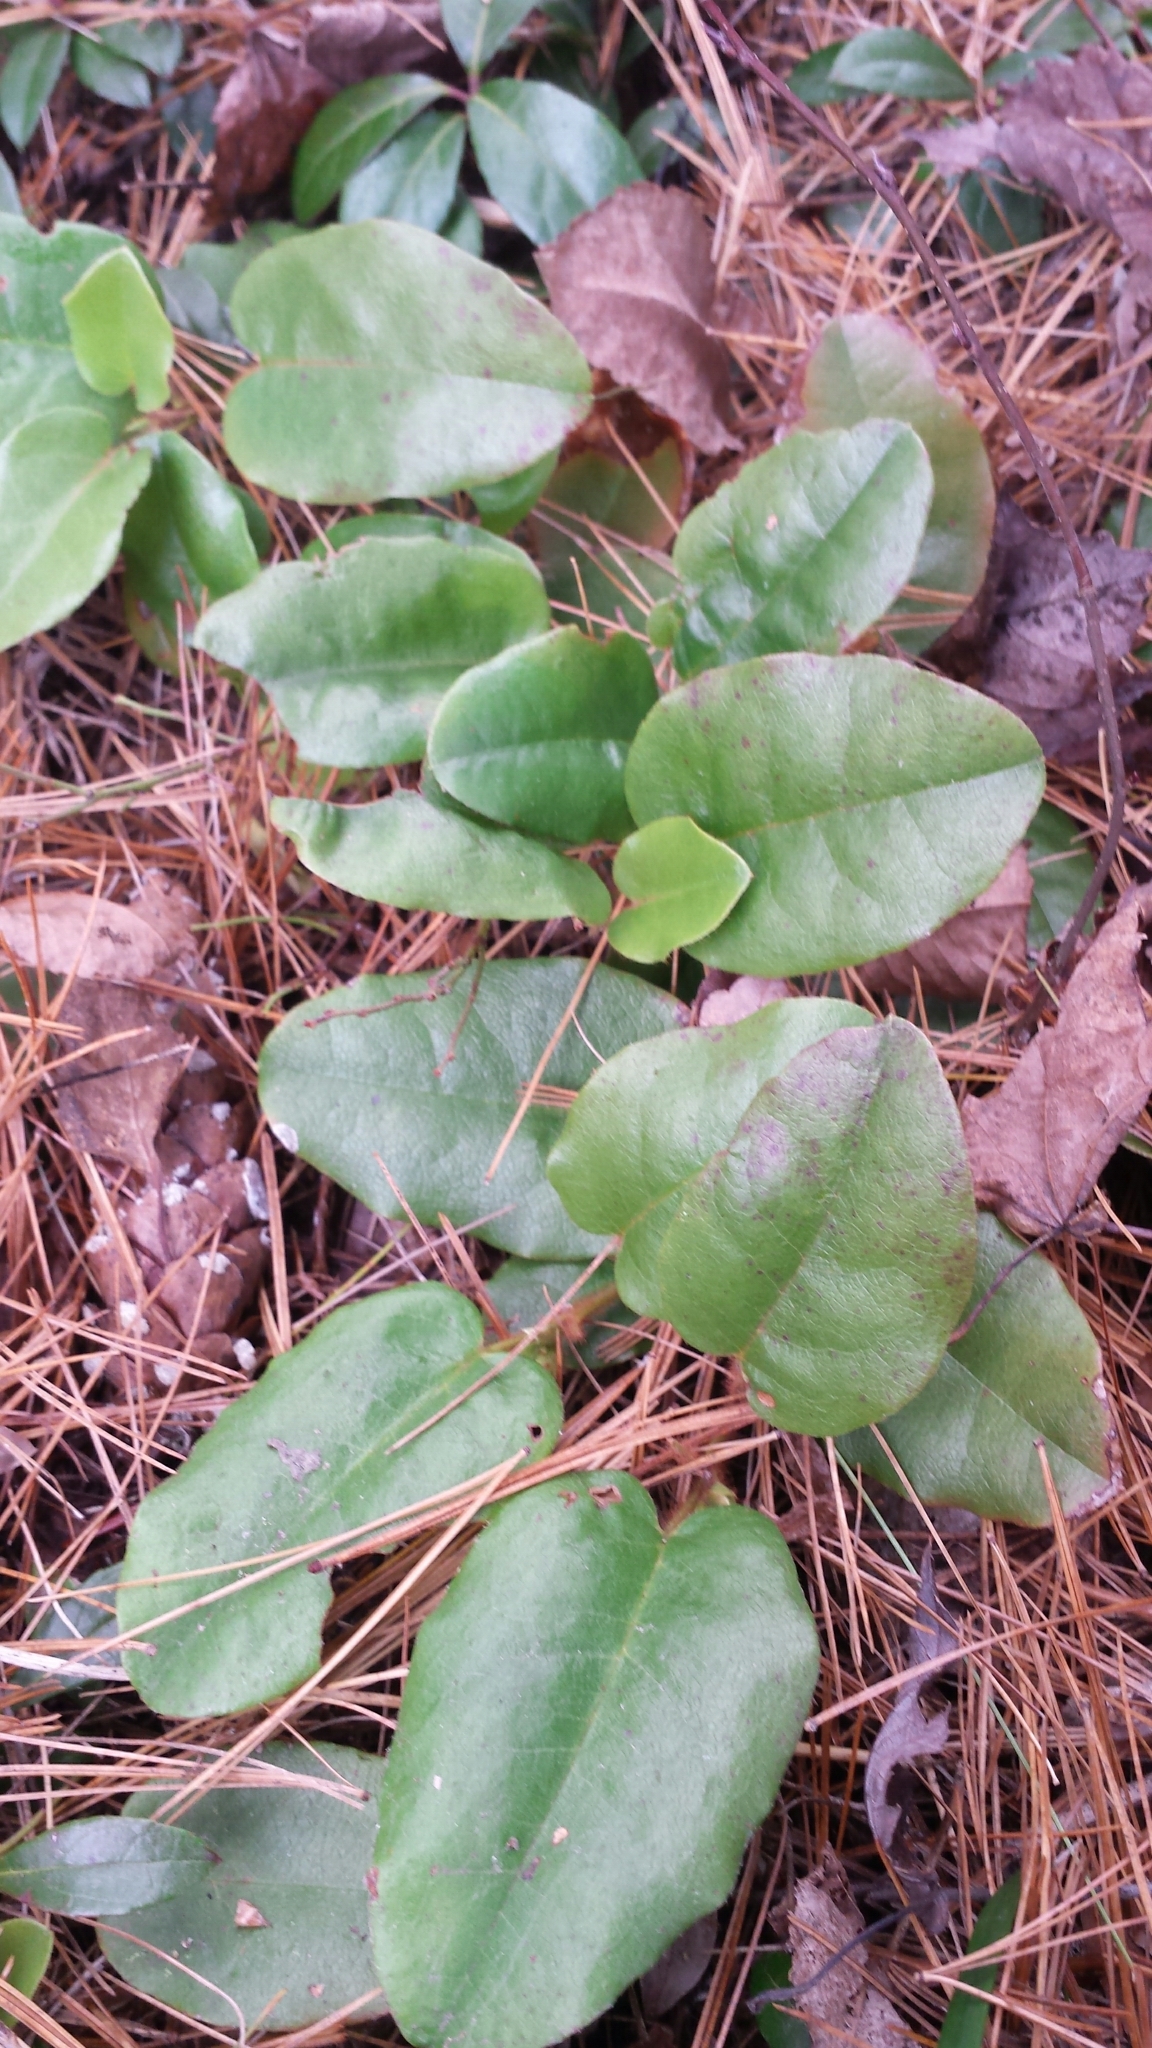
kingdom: Plantae
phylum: Tracheophyta
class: Magnoliopsida
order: Ericales
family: Ericaceae
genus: Epigaea
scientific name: Epigaea repens
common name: Gravelroot
